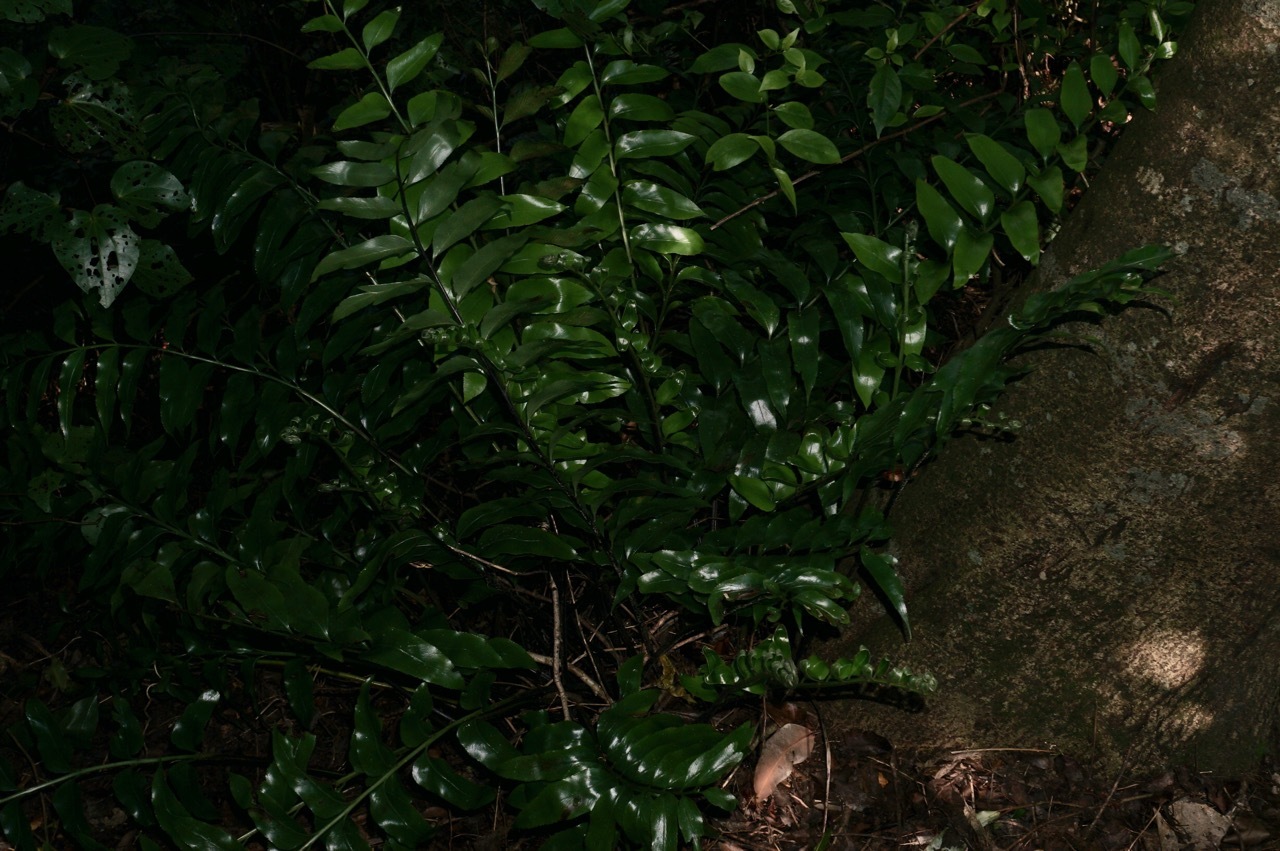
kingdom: Plantae
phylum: Tracheophyta
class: Polypodiopsida
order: Polypodiales
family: Aspleniaceae
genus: Asplenium
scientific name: Asplenium oblongifolium
